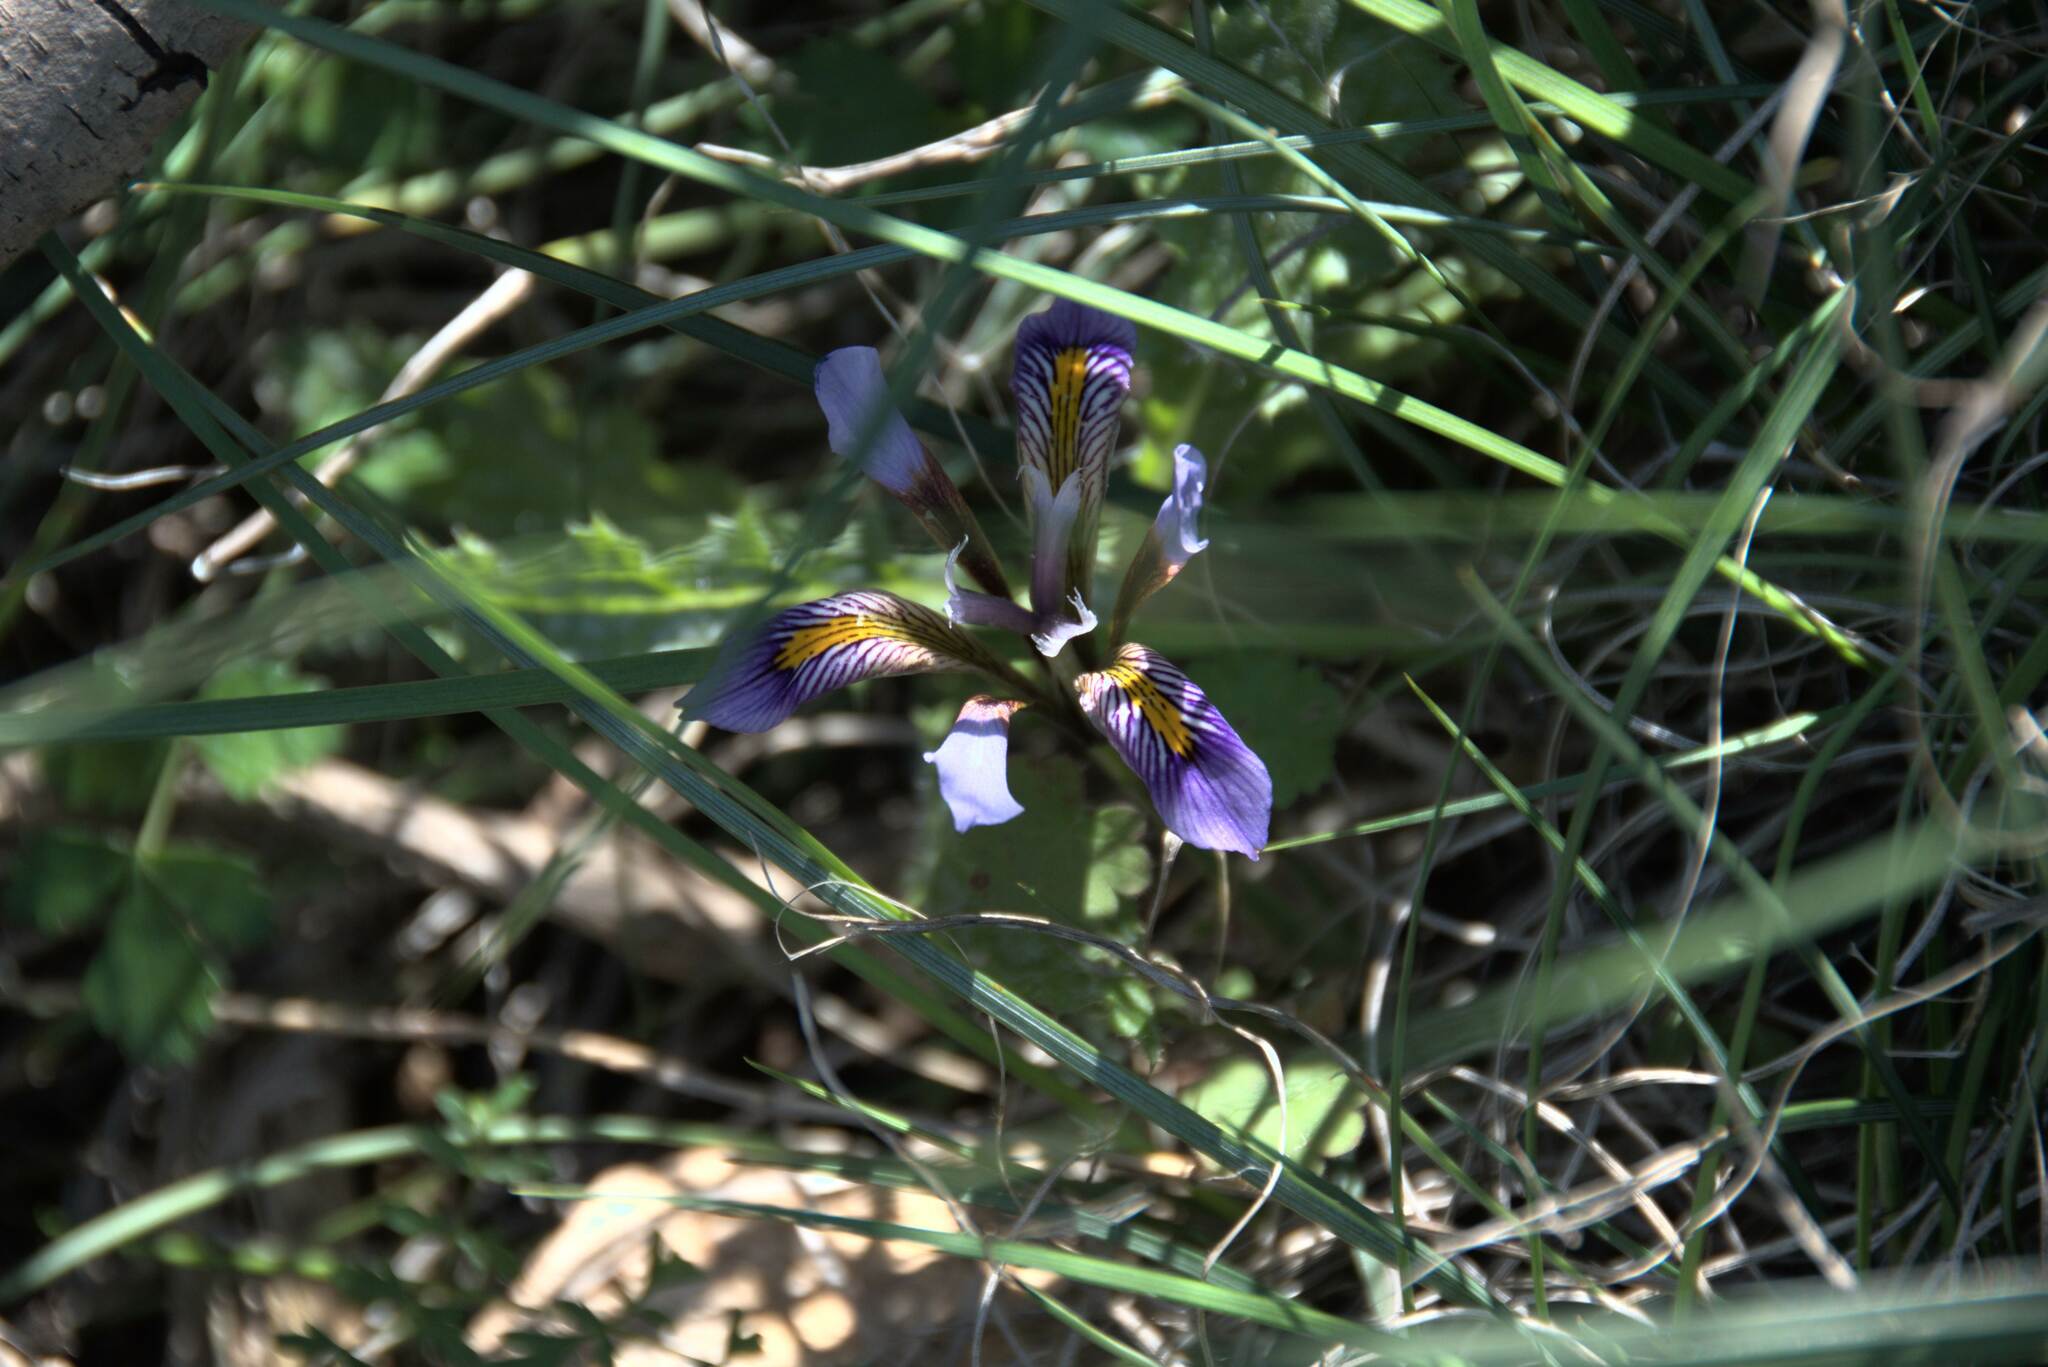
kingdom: Plantae
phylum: Tracheophyta
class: Liliopsida
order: Asparagales
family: Iridaceae
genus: Iris
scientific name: Iris unguicularis
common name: Algerian iris
